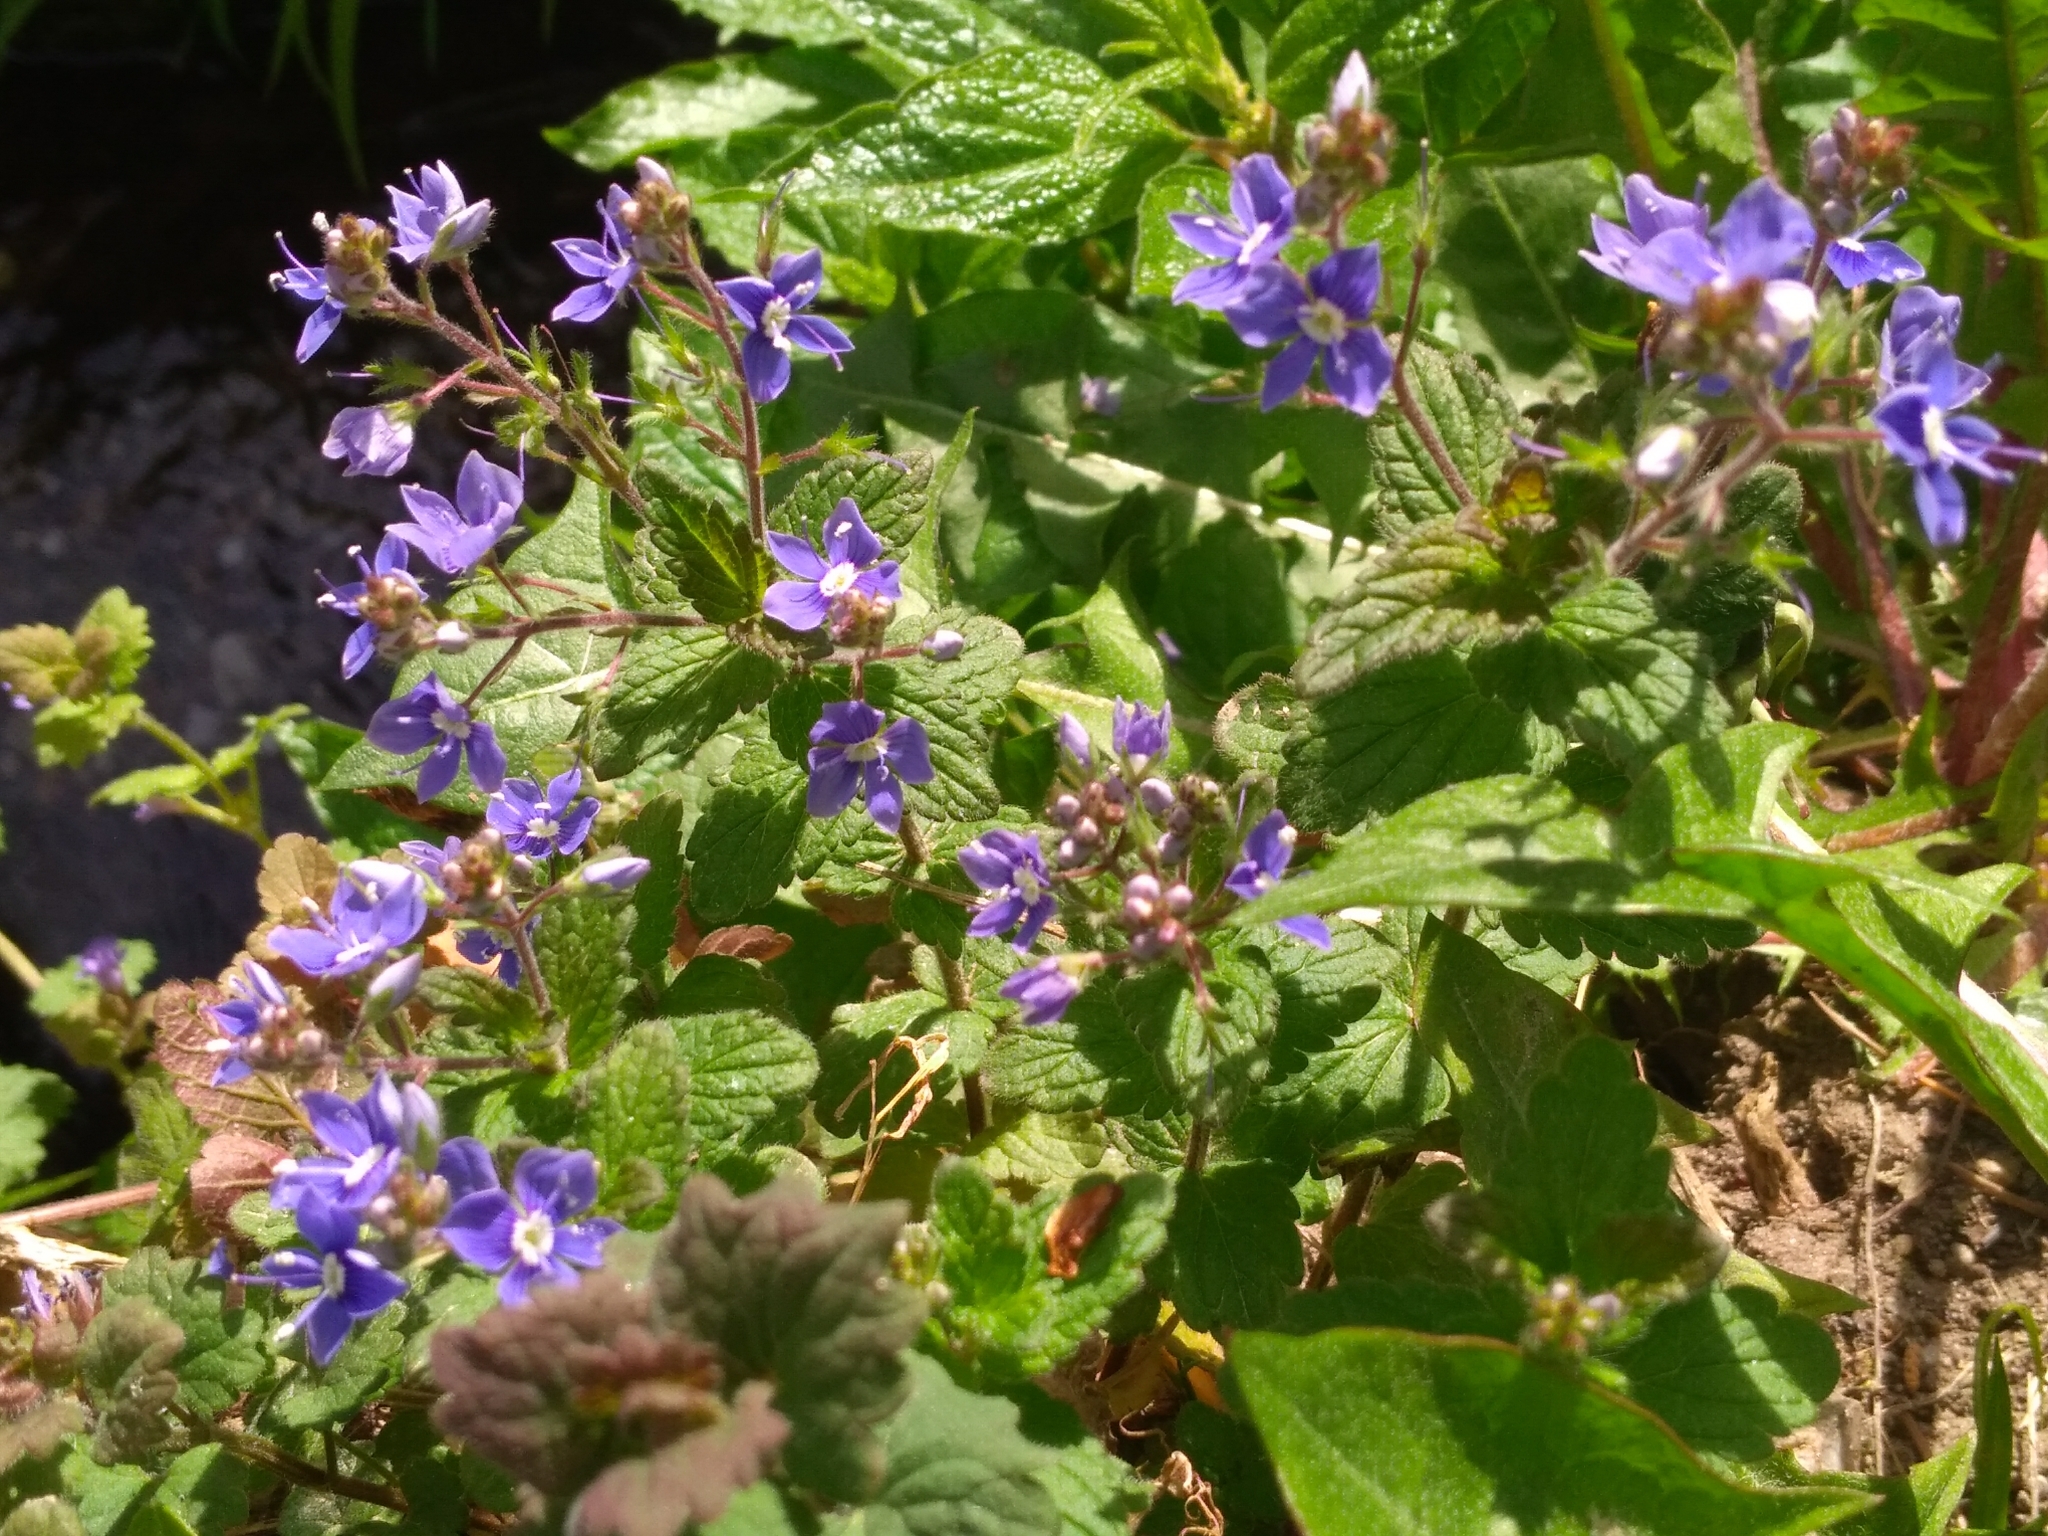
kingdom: Plantae
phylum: Tracheophyta
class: Magnoliopsida
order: Lamiales
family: Plantaginaceae
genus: Veronica
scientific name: Veronica chamaedrys
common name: Germander speedwell
